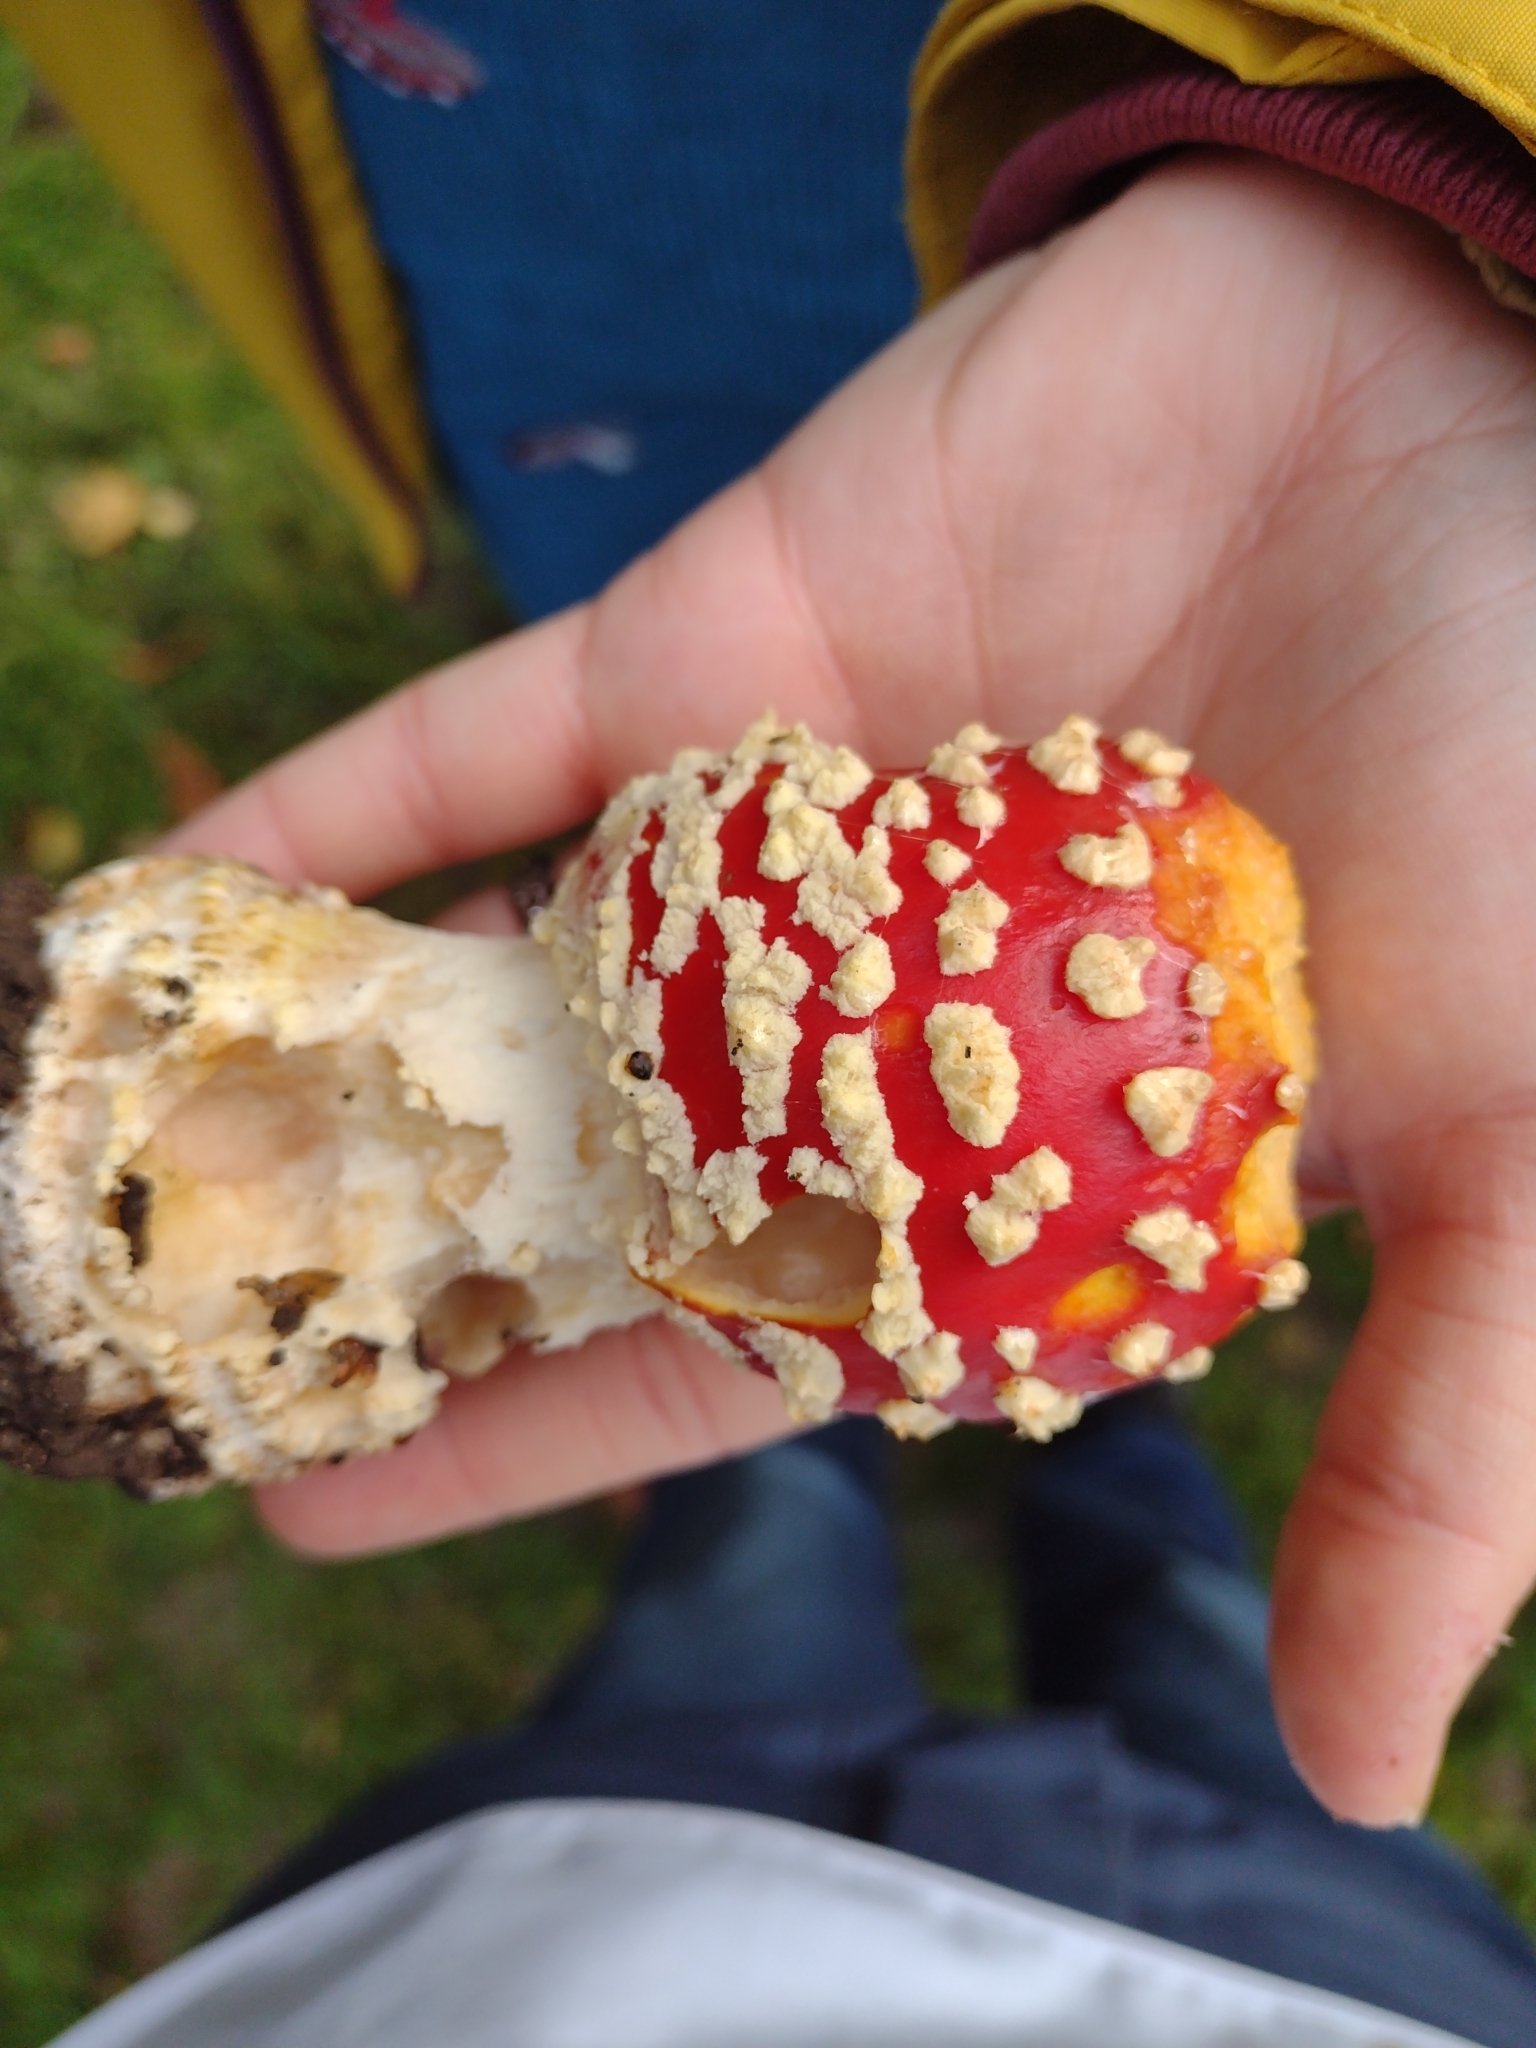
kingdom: Fungi
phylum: Basidiomycota
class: Agaricomycetes
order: Agaricales
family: Amanitaceae
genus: Amanita
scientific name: Amanita muscaria
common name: Fly agaric
